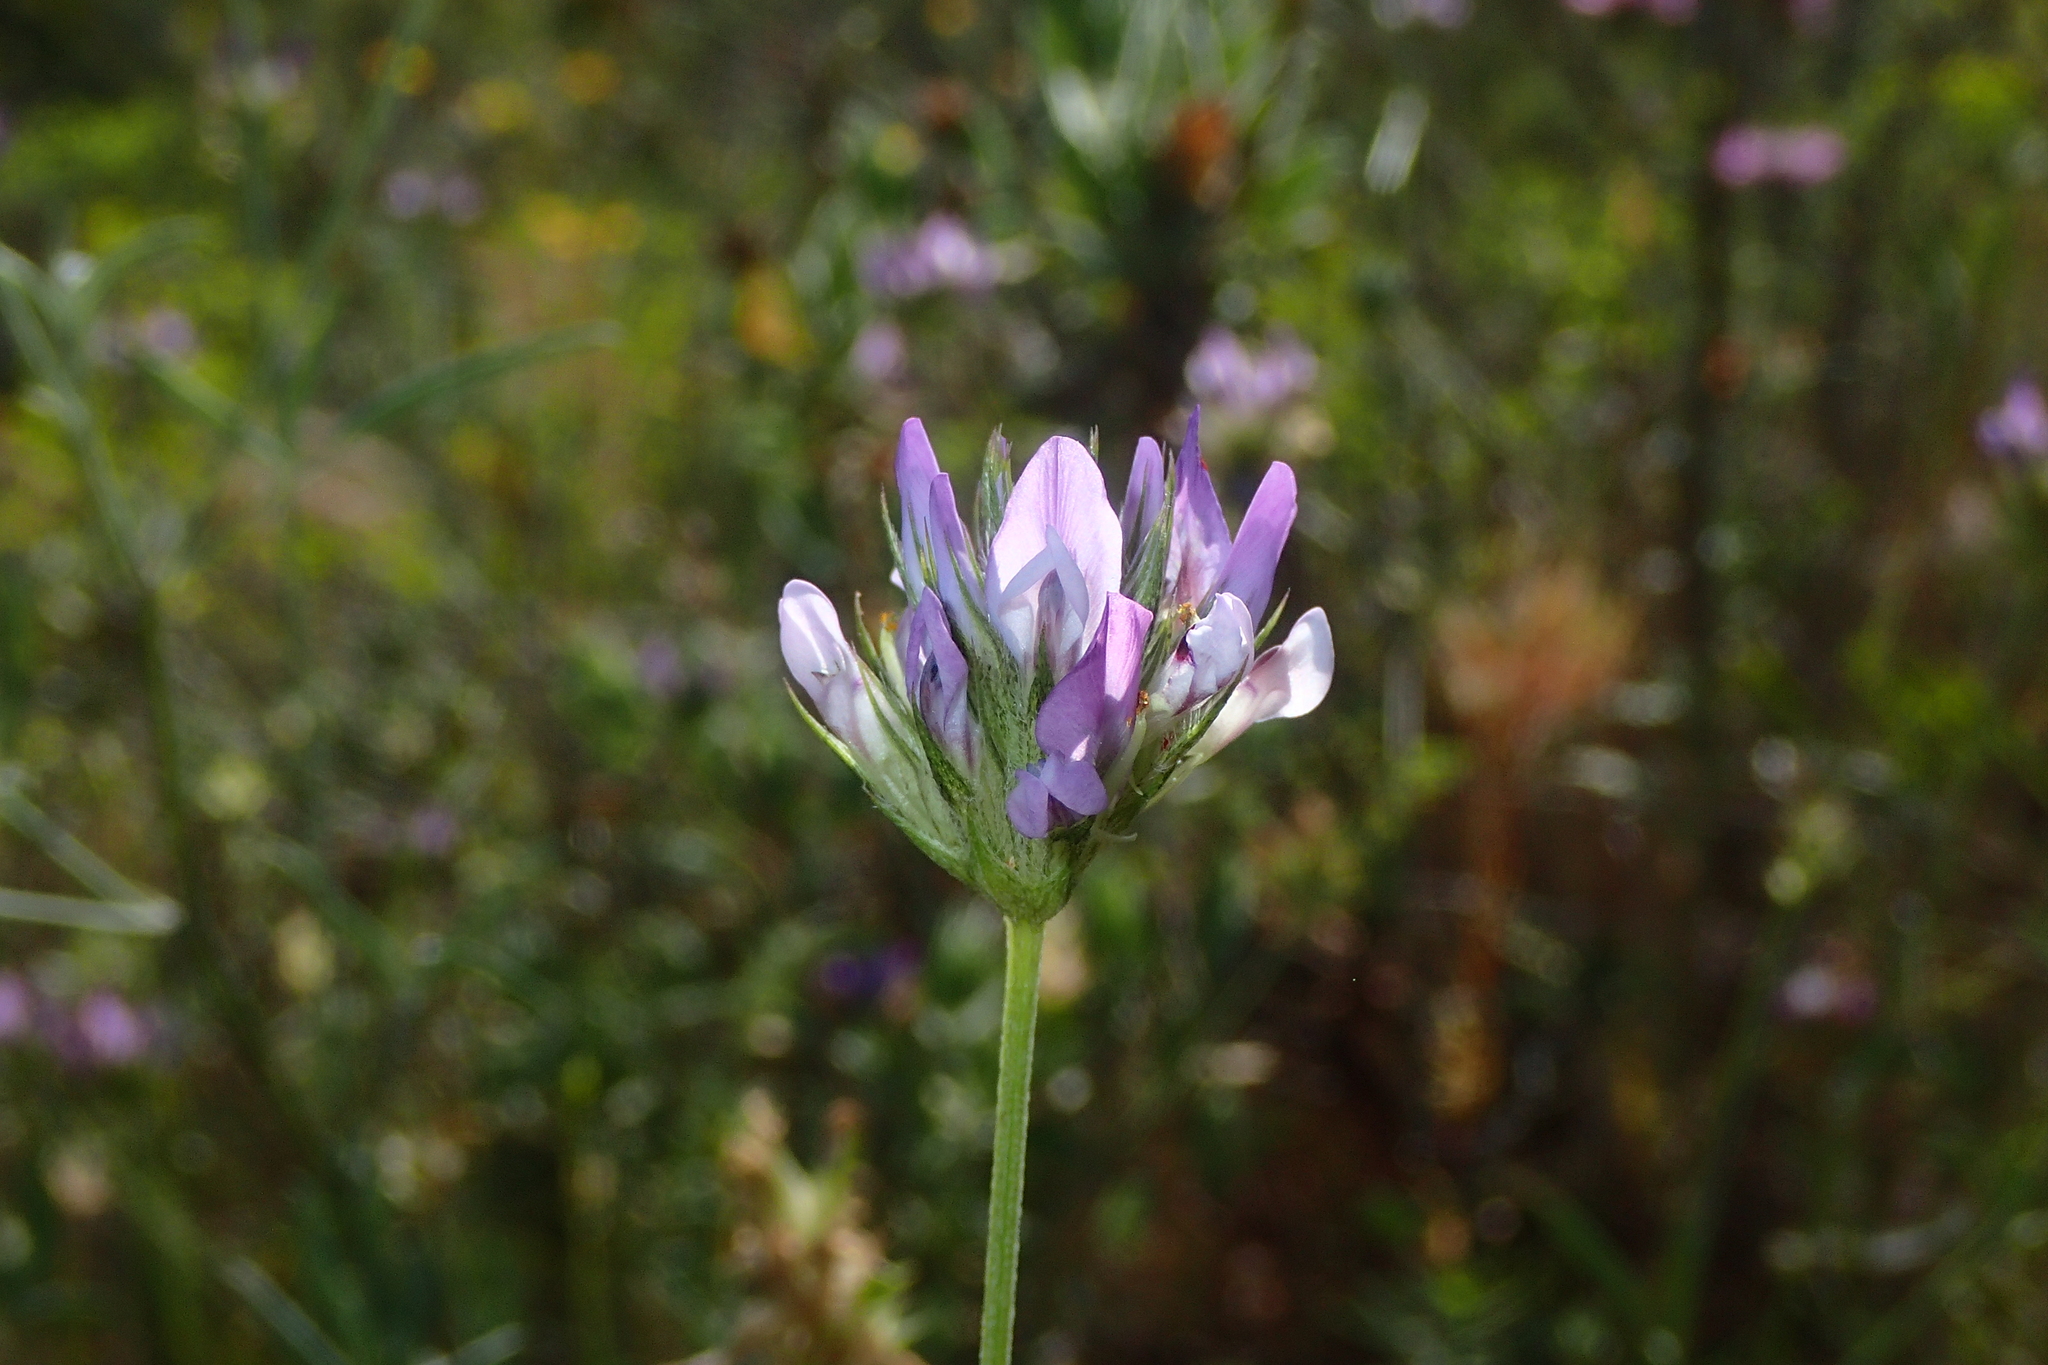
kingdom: Plantae
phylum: Tracheophyta
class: Magnoliopsida
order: Fabales
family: Fabaceae
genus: Bituminaria
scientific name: Bituminaria bituminosa
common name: Arabian pea
